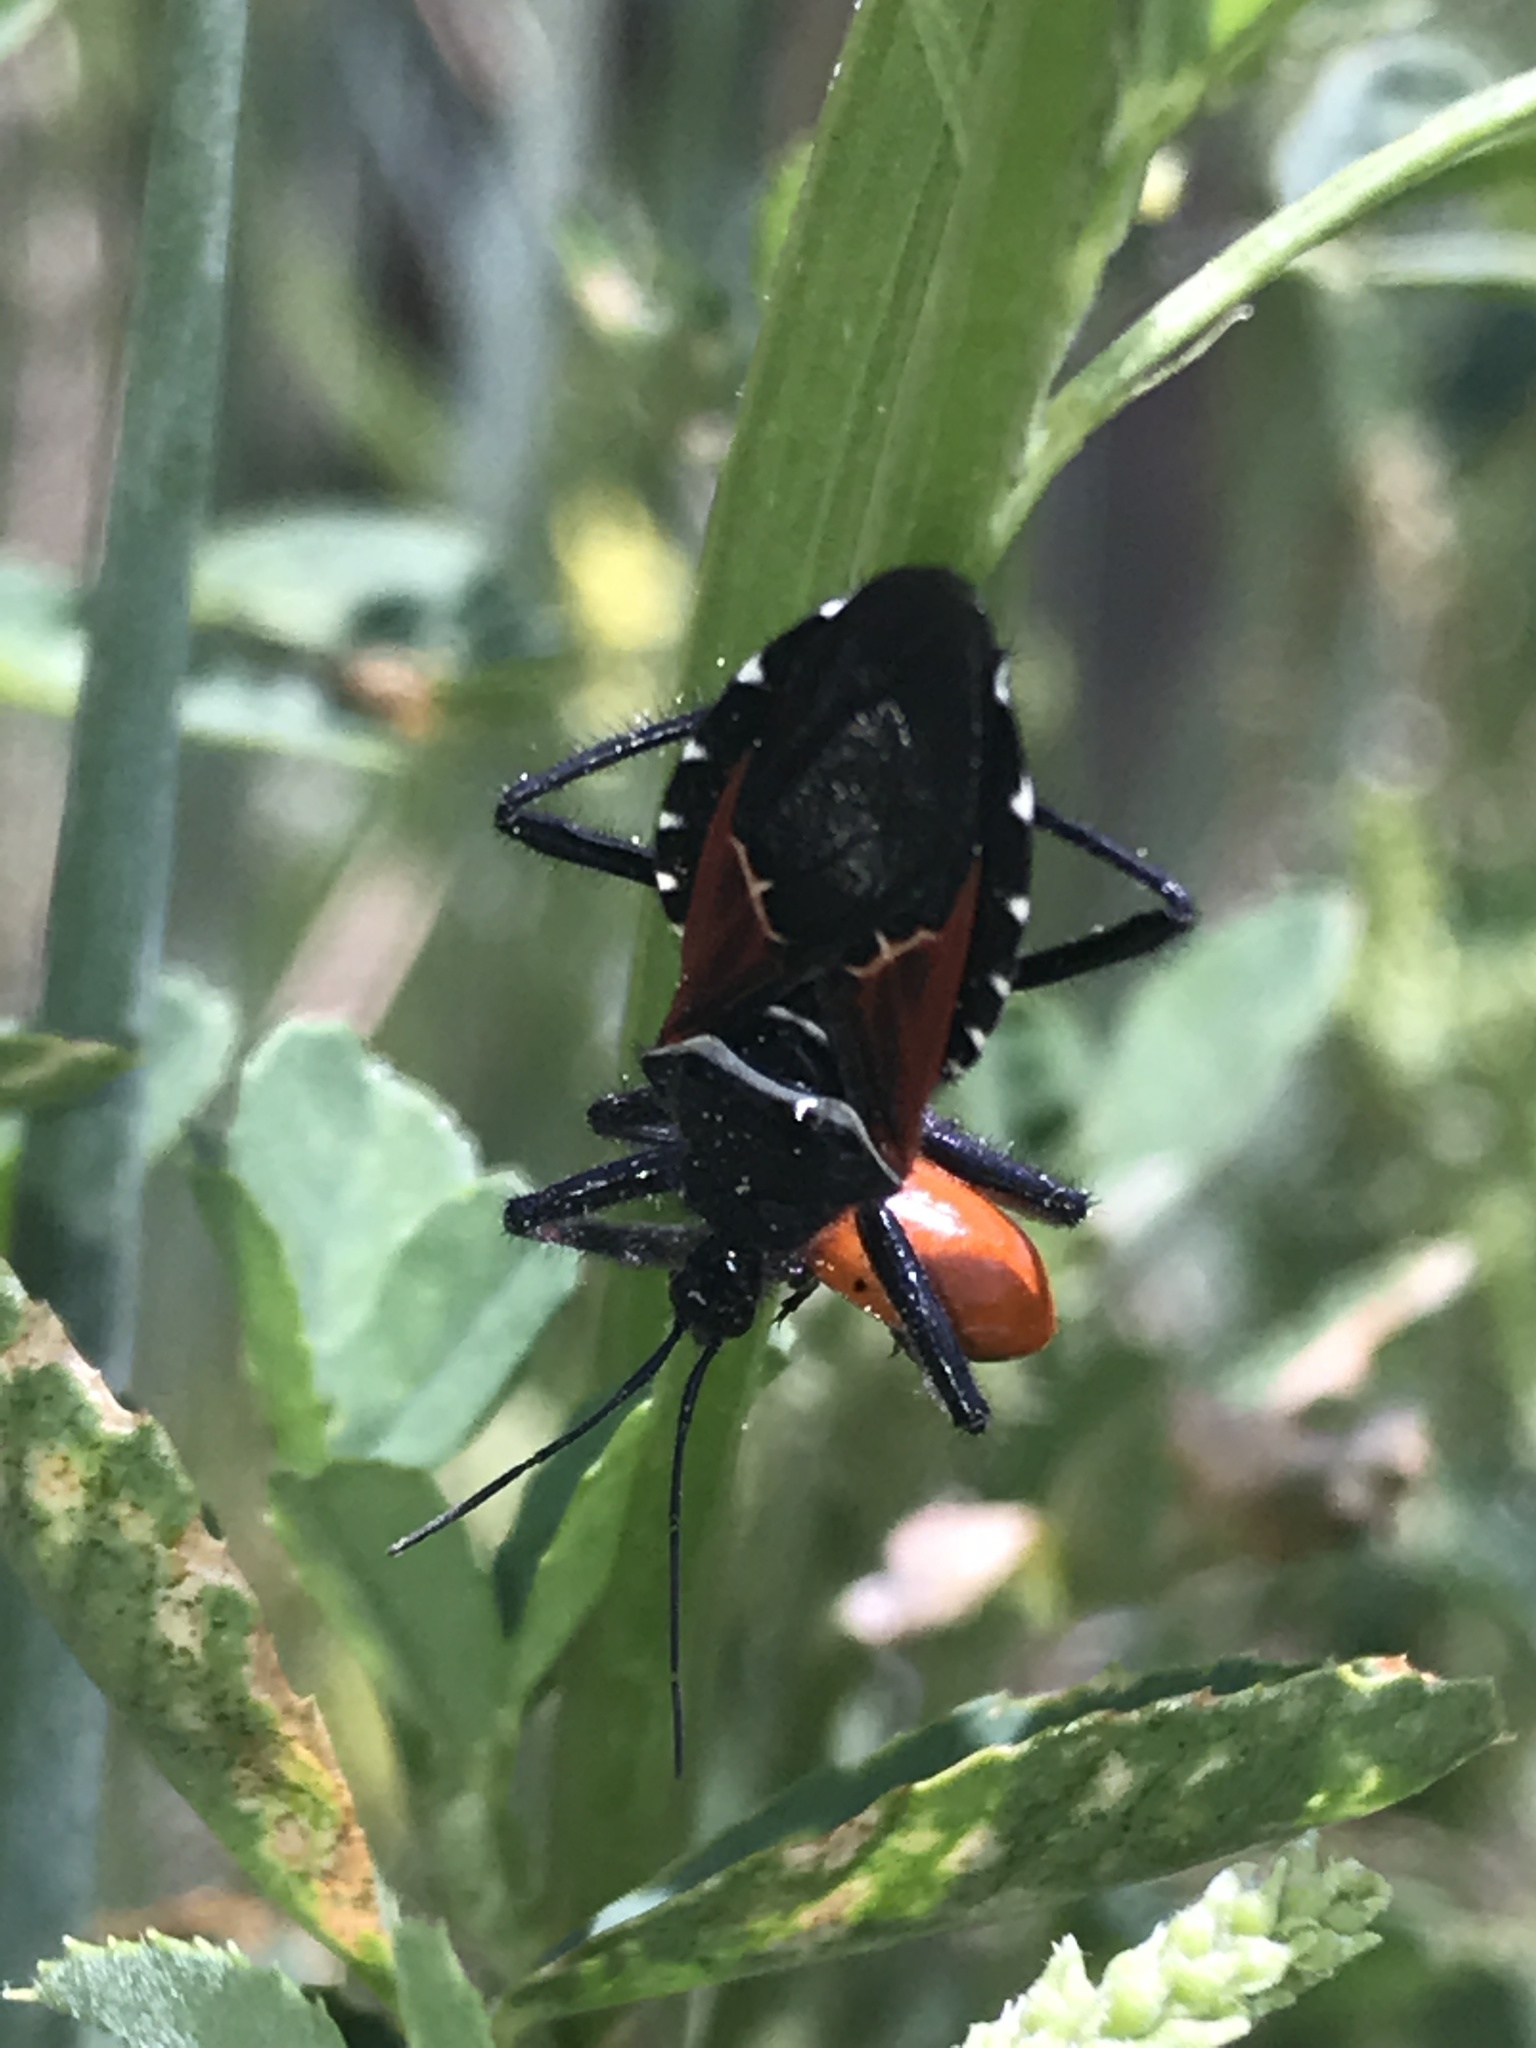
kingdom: Animalia
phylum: Arthropoda
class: Insecta
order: Hemiptera
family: Reduviidae
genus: Apiomerus
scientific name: Apiomerus montanus
